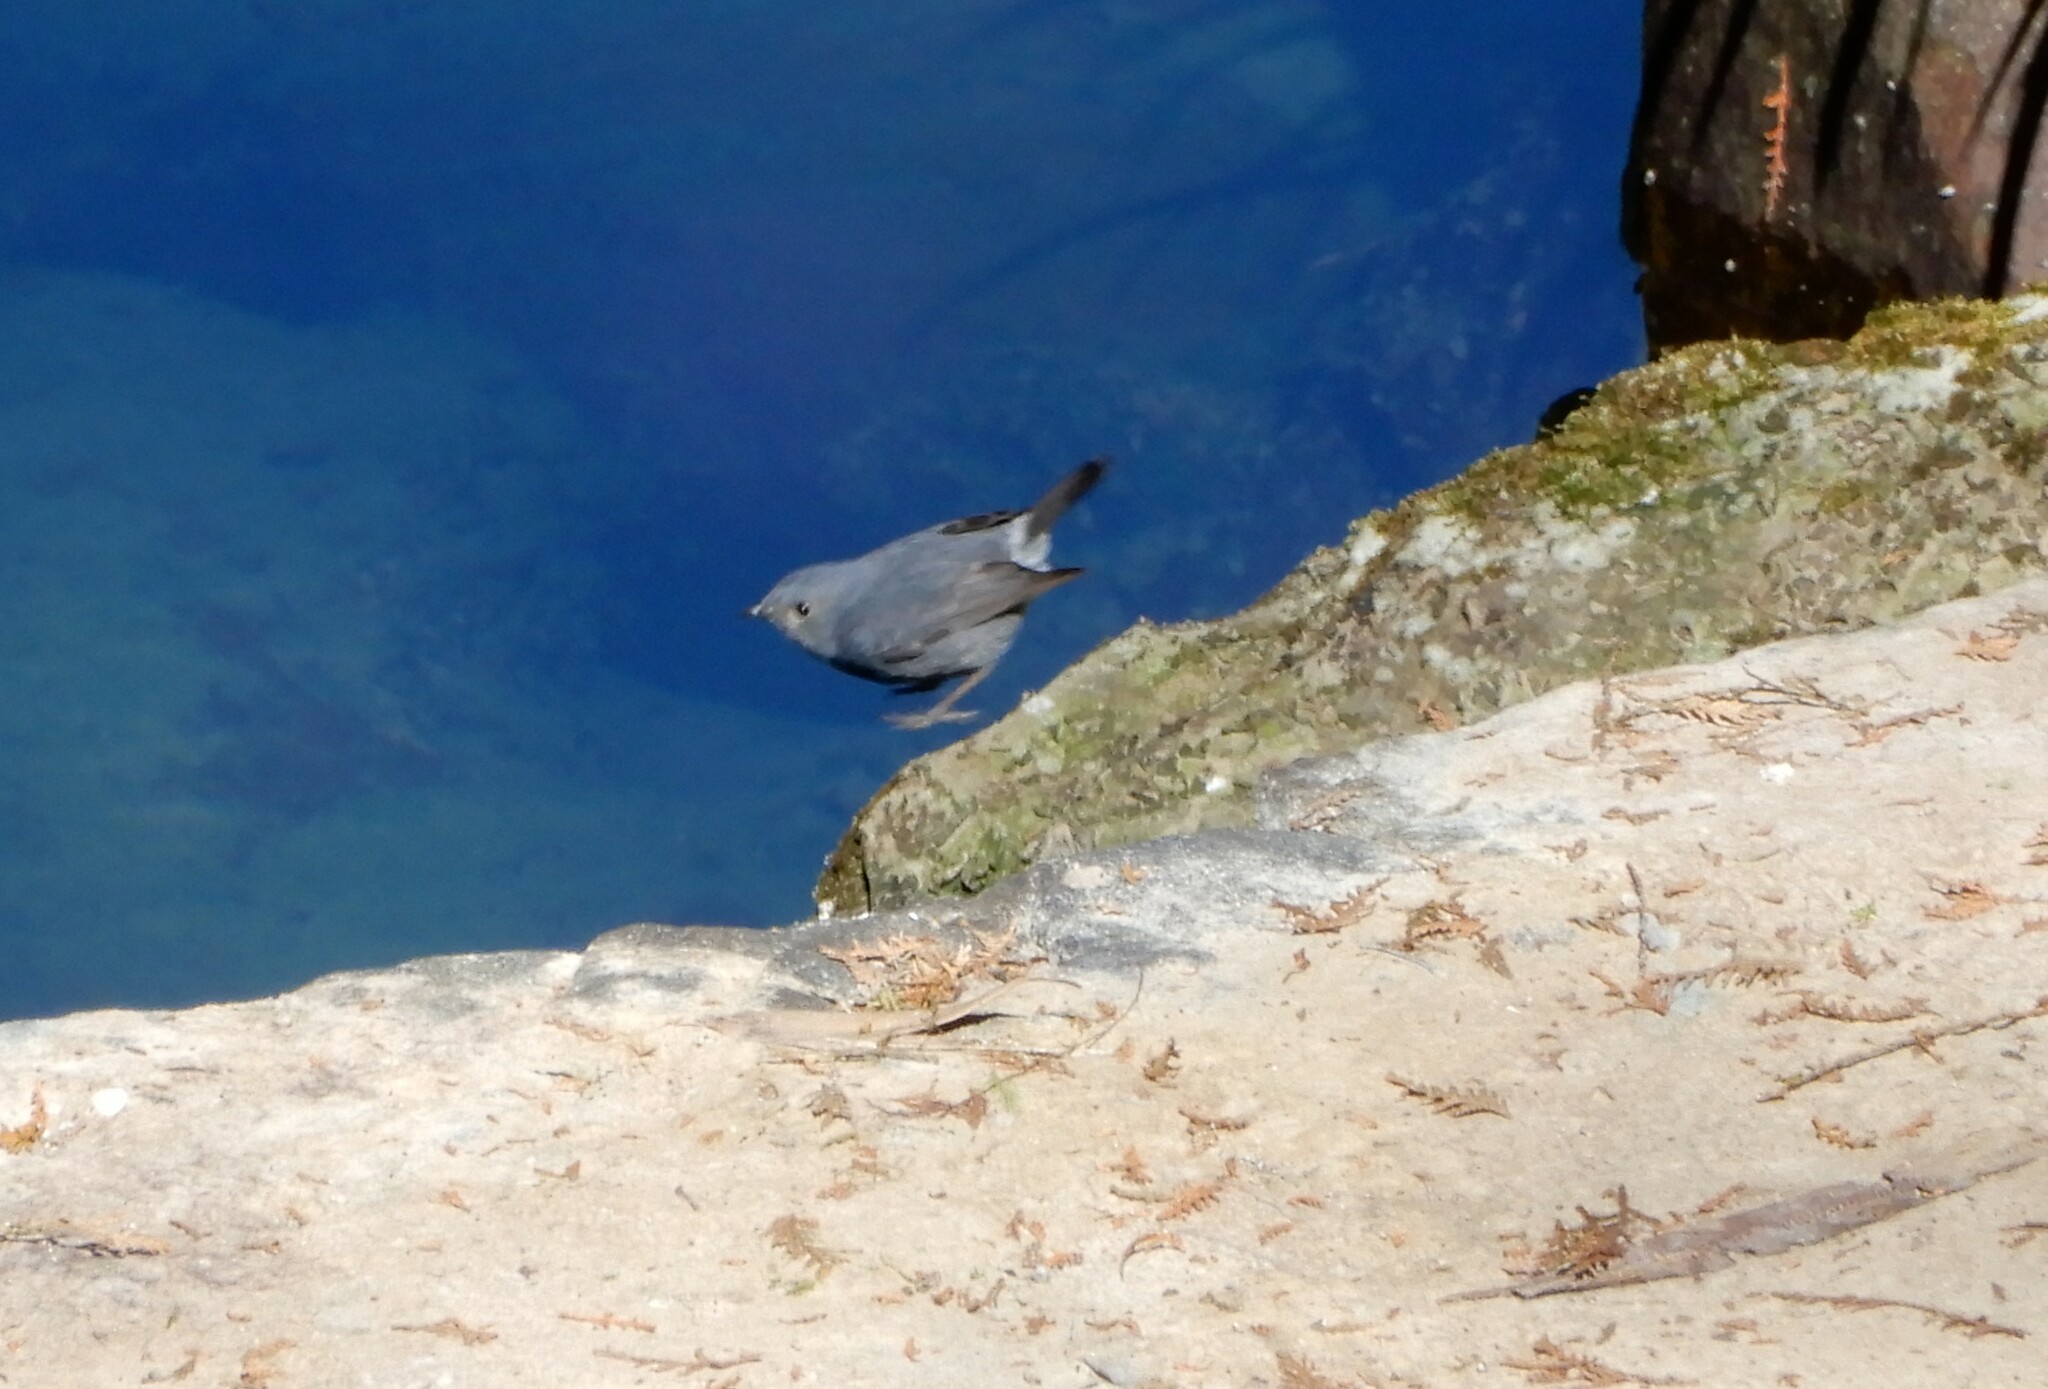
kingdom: Animalia
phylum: Chordata
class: Aves
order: Passeriformes
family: Muscicapidae
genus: Rhyacornis
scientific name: Rhyacornis fuliginosa
